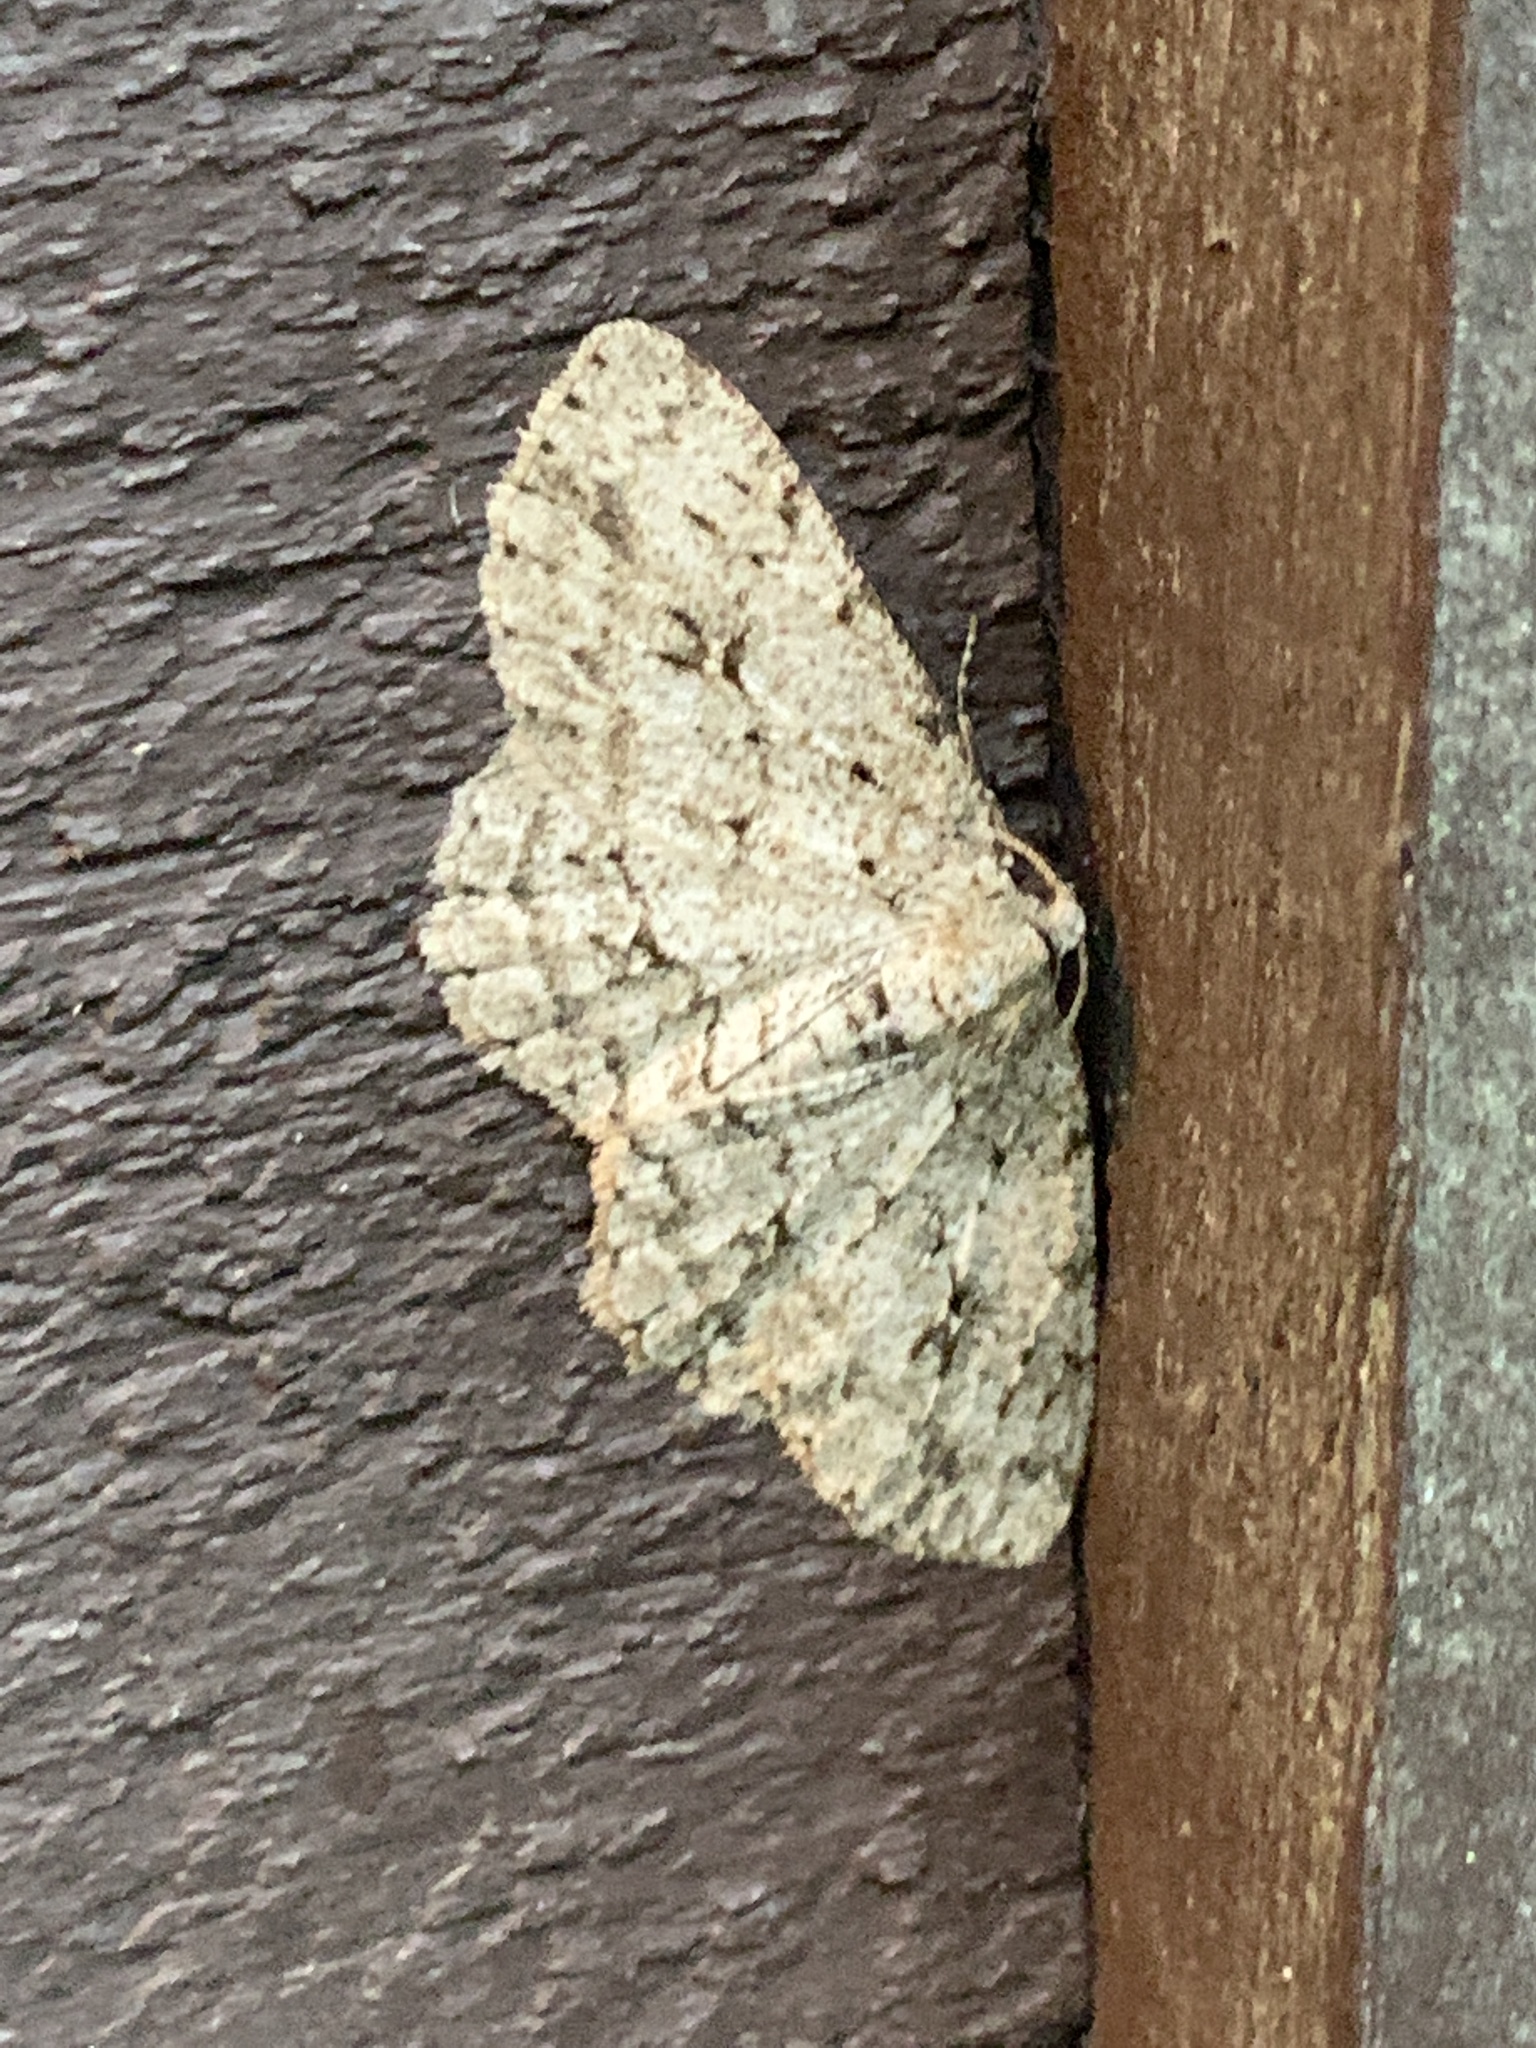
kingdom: Animalia
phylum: Arthropoda
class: Insecta
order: Lepidoptera
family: Geometridae
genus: Ectropis
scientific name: Ectropis crepuscularia
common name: Engrailed
